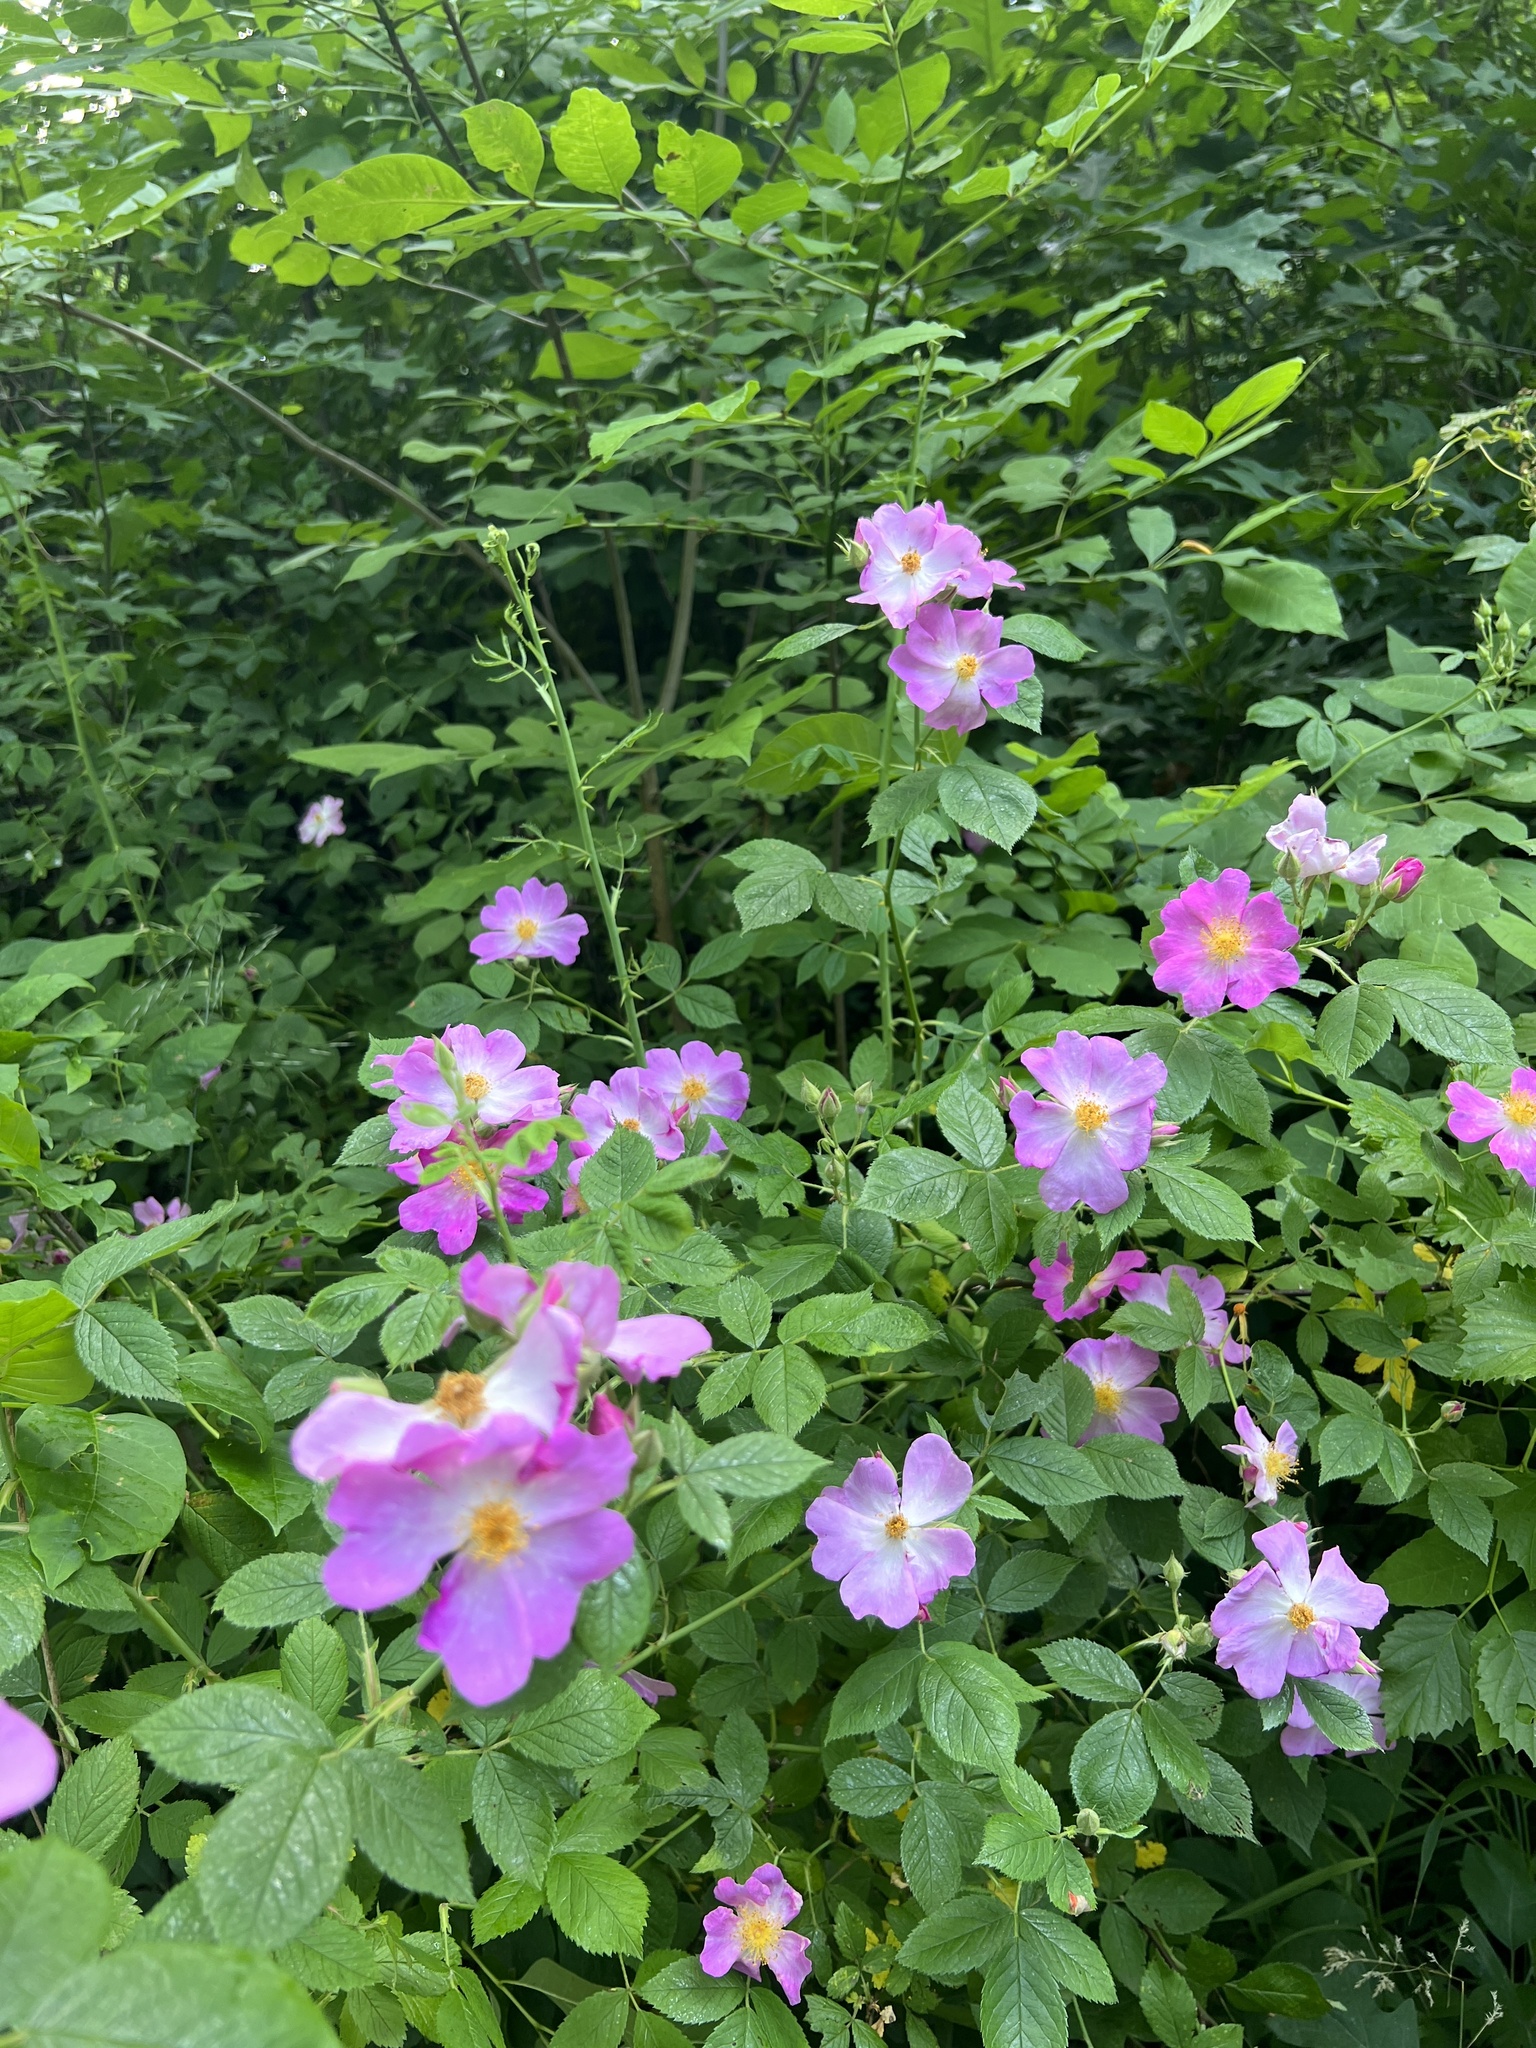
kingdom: Plantae
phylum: Tracheophyta
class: Magnoliopsida
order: Rosales
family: Rosaceae
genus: Rosa
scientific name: Rosa setigera
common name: Prairie rose
